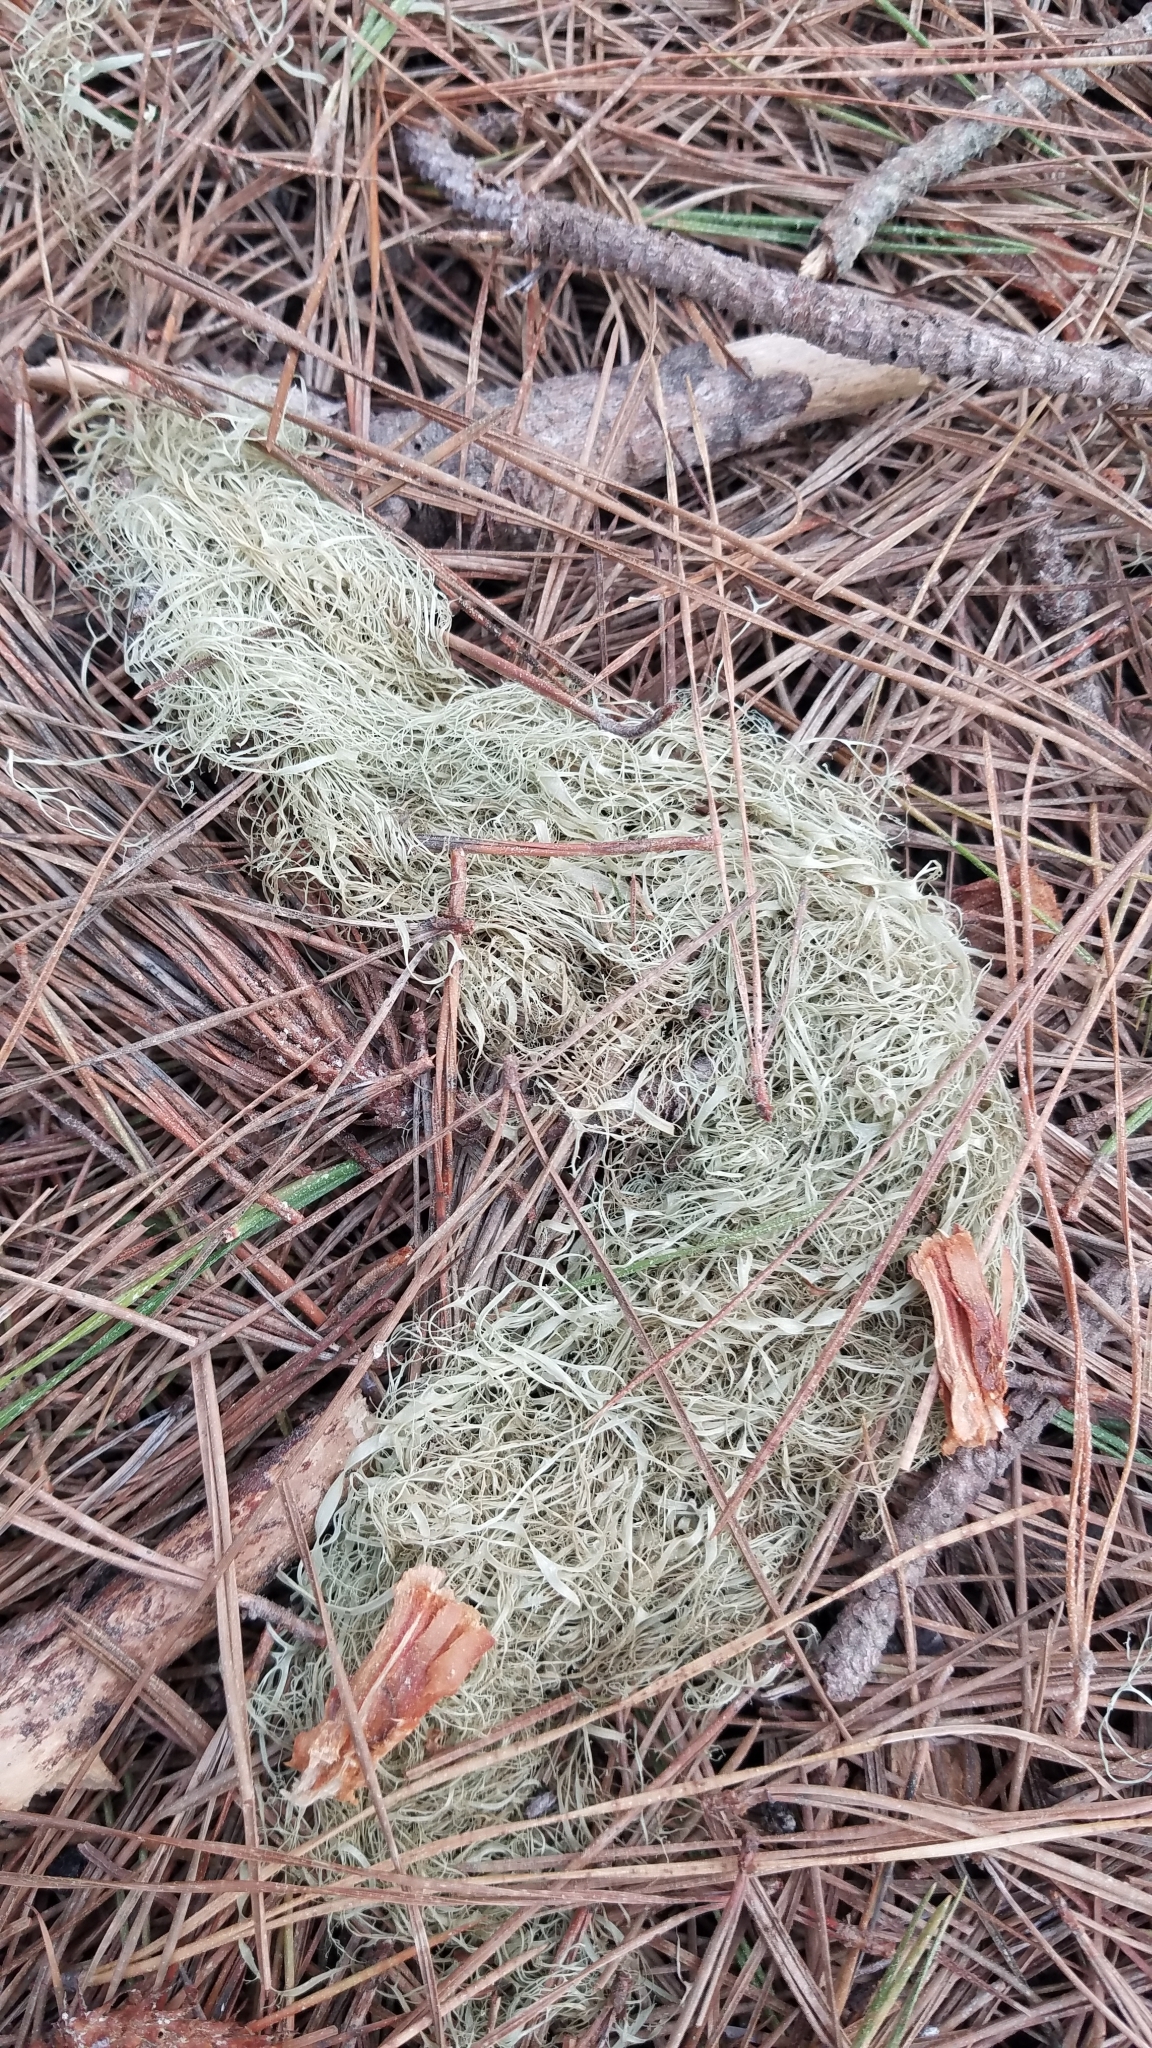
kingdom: Fungi
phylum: Ascomycota
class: Lecanoromycetes
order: Lecanorales
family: Ramalinaceae
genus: Ramalina
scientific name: Ramalina menziesii
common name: Lace lichen
